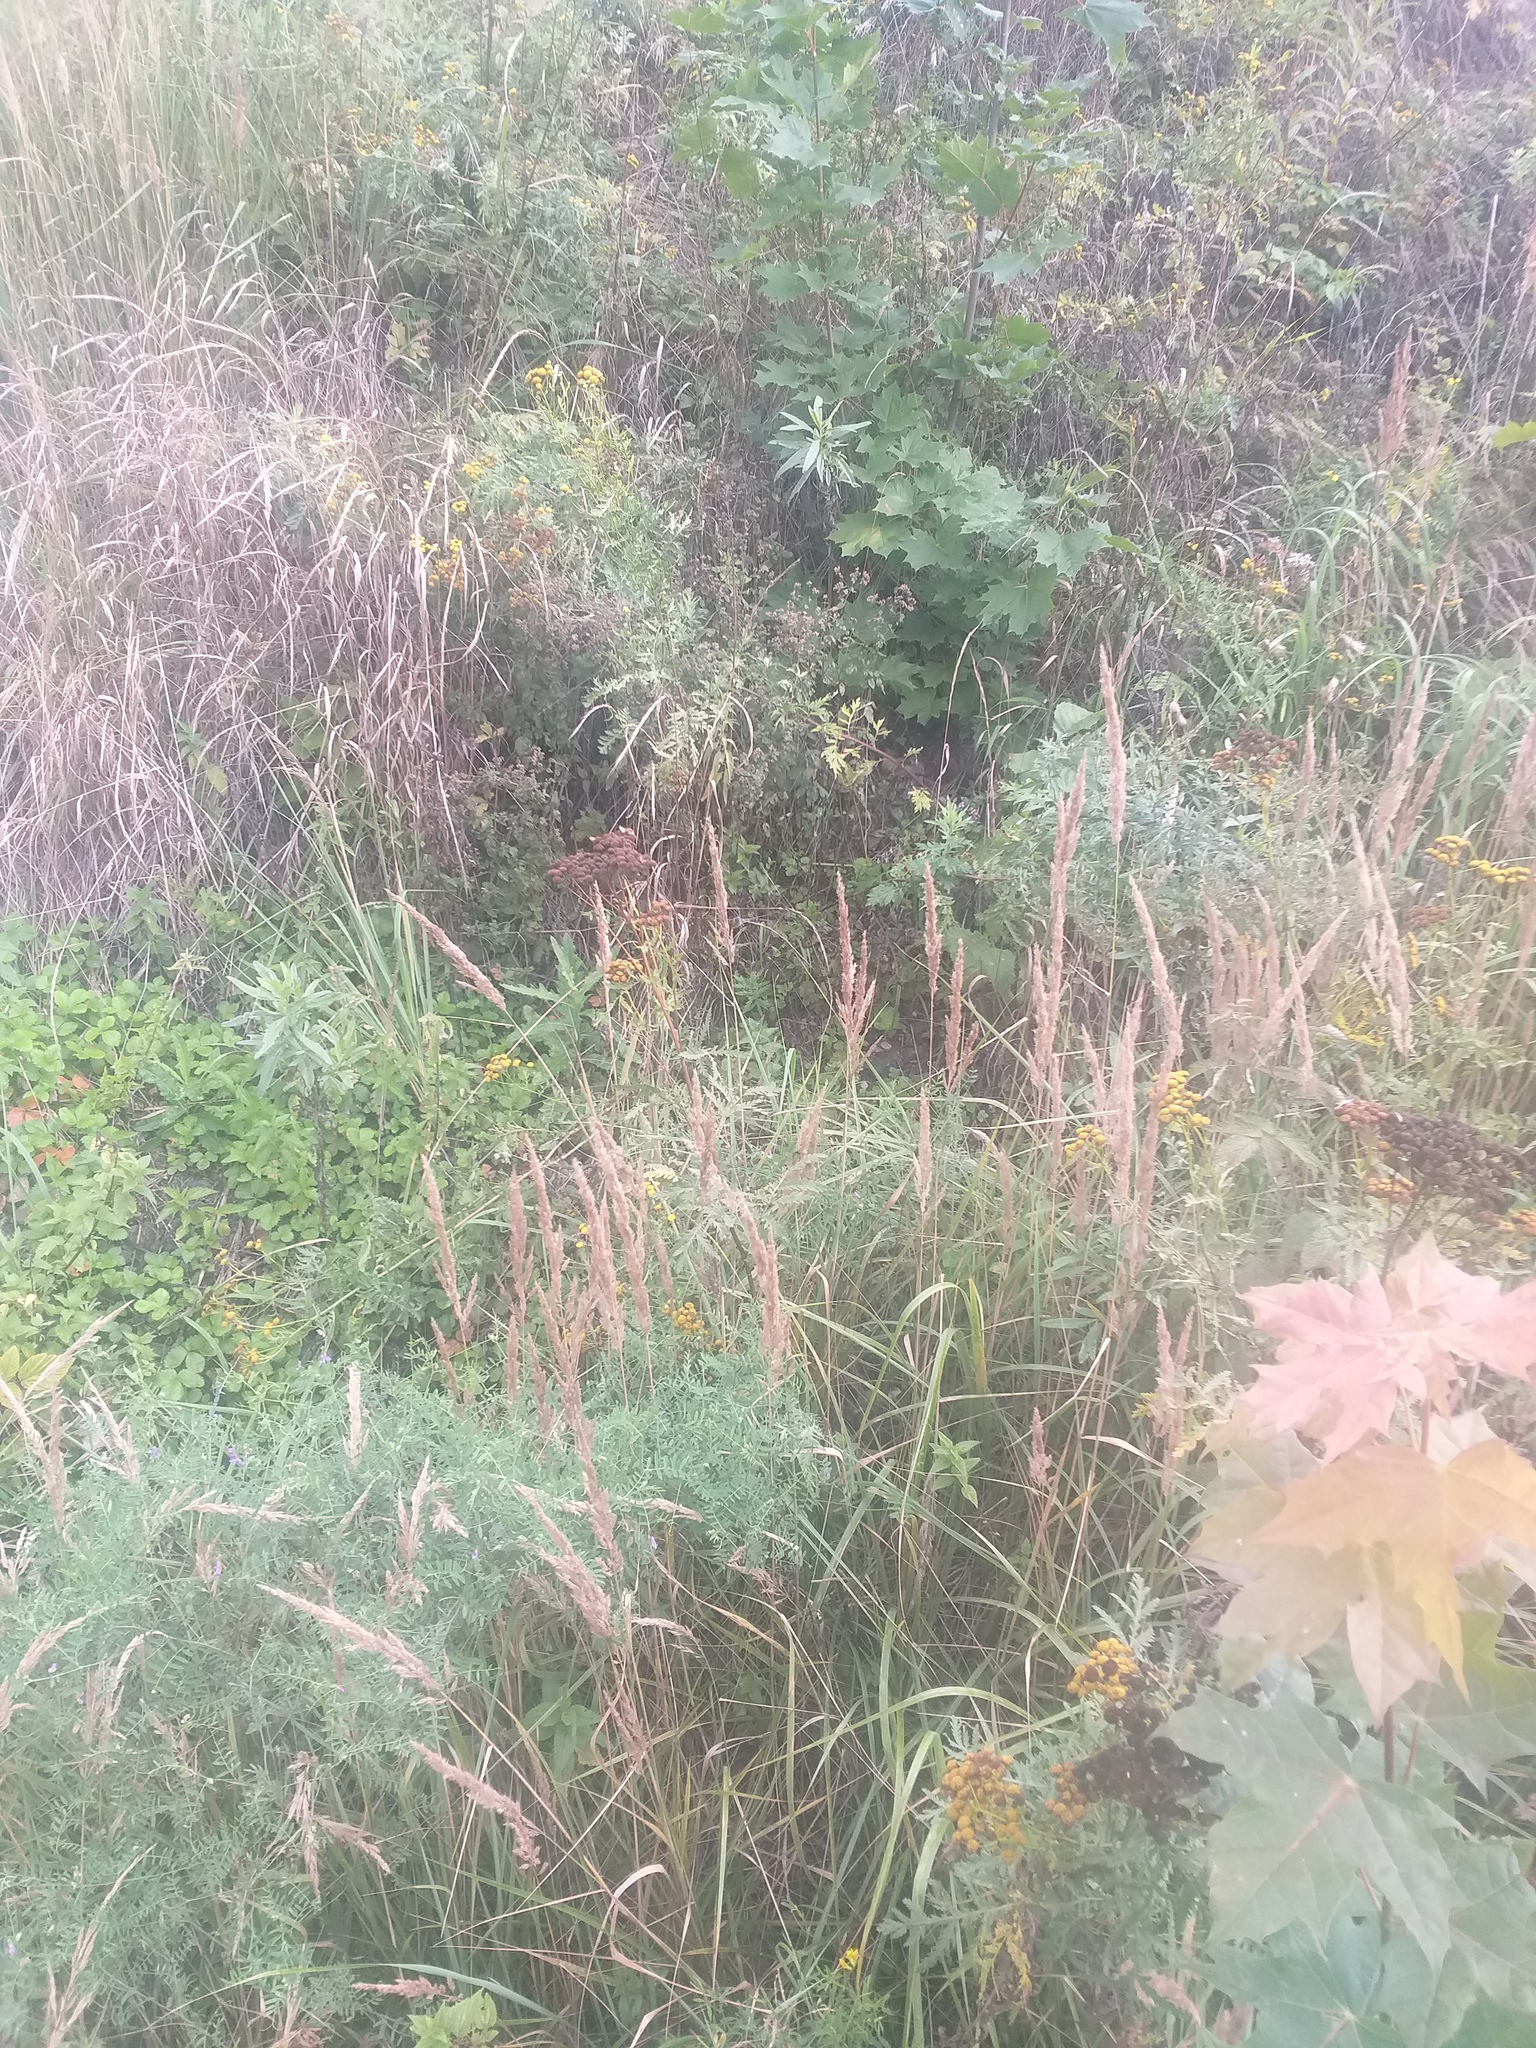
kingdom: Plantae
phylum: Tracheophyta
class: Magnoliopsida
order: Asterales
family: Asteraceae
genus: Tanacetum
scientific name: Tanacetum vulgare
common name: Common tansy
